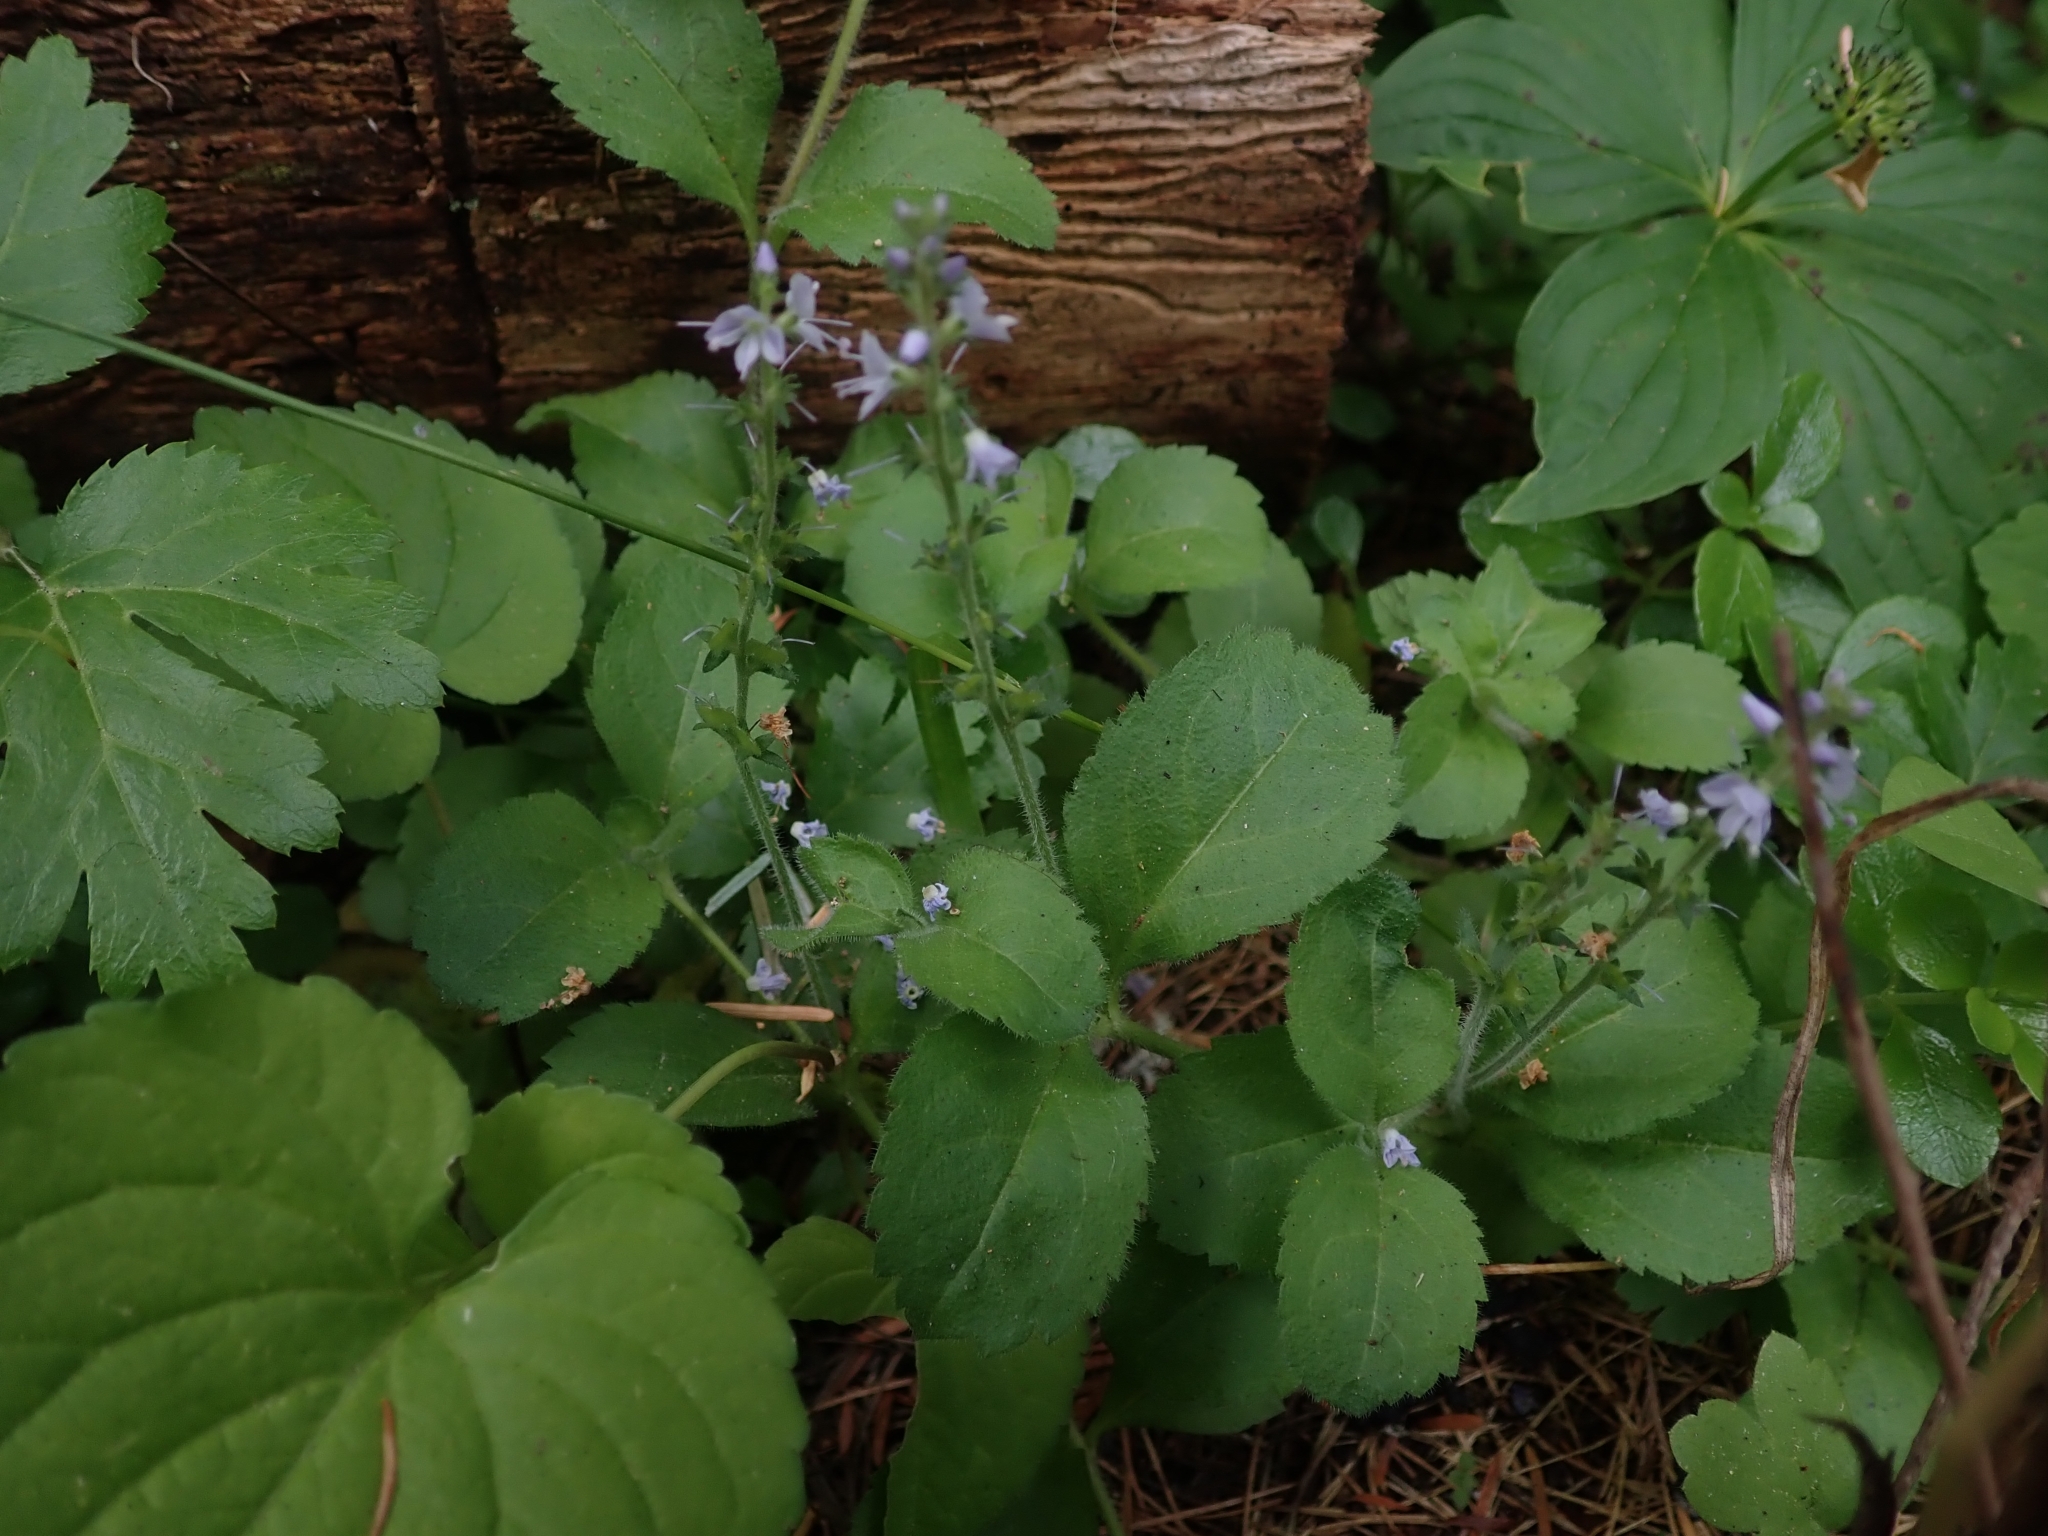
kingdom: Plantae
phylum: Tracheophyta
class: Magnoliopsida
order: Lamiales
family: Plantaginaceae
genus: Veronica
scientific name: Veronica officinalis
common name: Common speedwell
